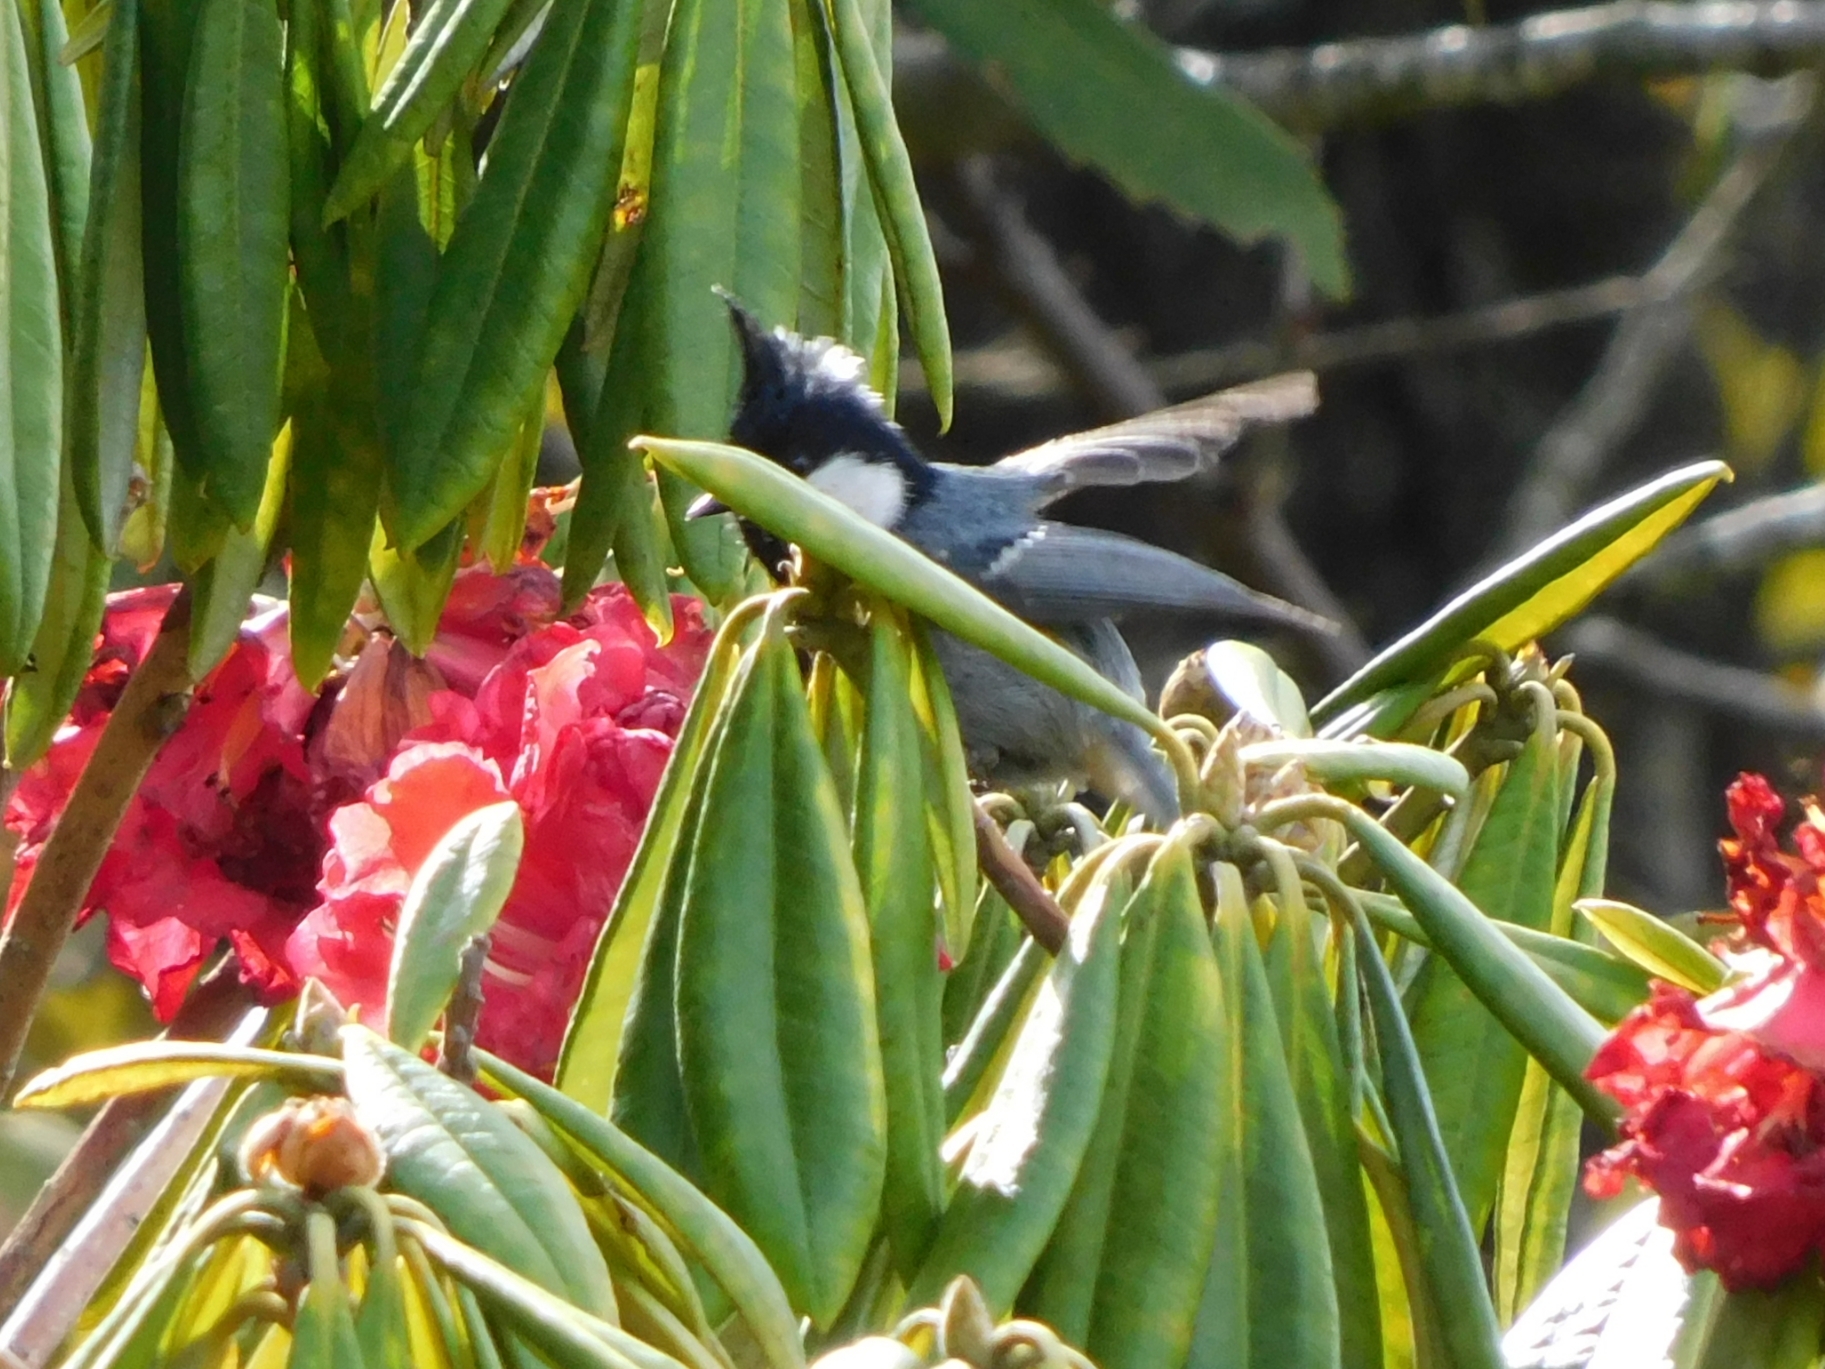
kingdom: Animalia
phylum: Chordata
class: Aves
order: Passeriformes
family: Paridae
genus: Periparus
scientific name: Periparus ater
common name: Coal tit
